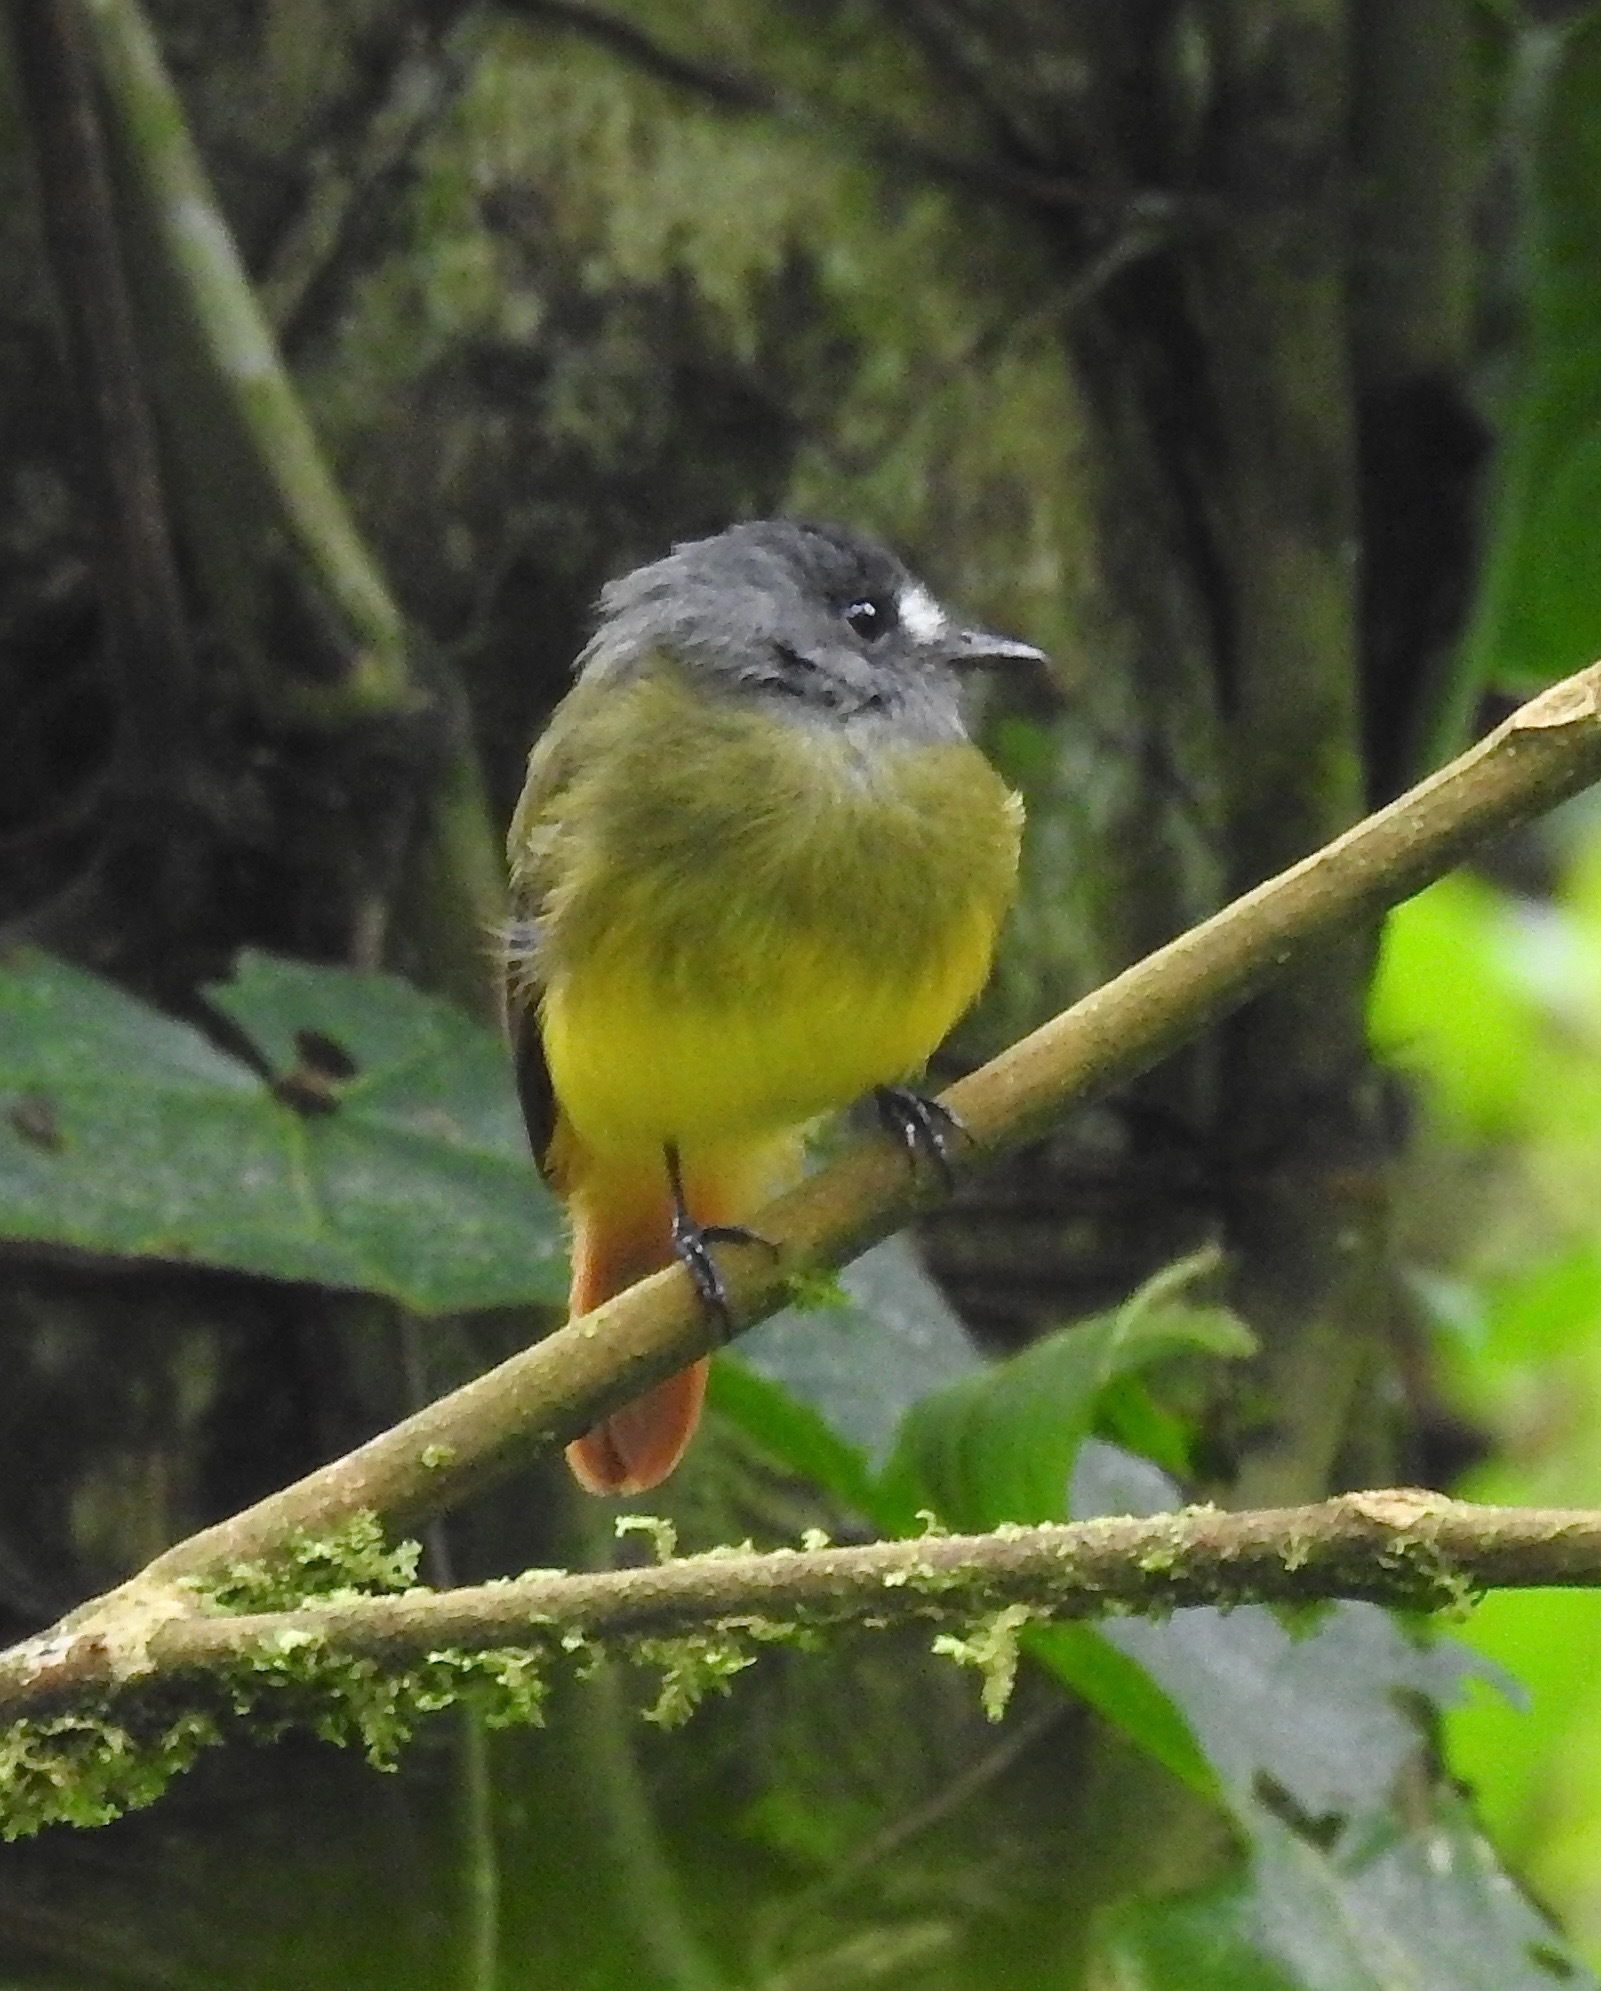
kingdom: Animalia
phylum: Chordata
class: Aves
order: Passeriformes
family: Tyrannidae
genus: Myiotriccus
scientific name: Myiotriccus ornatus
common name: Ornate flycatcher
